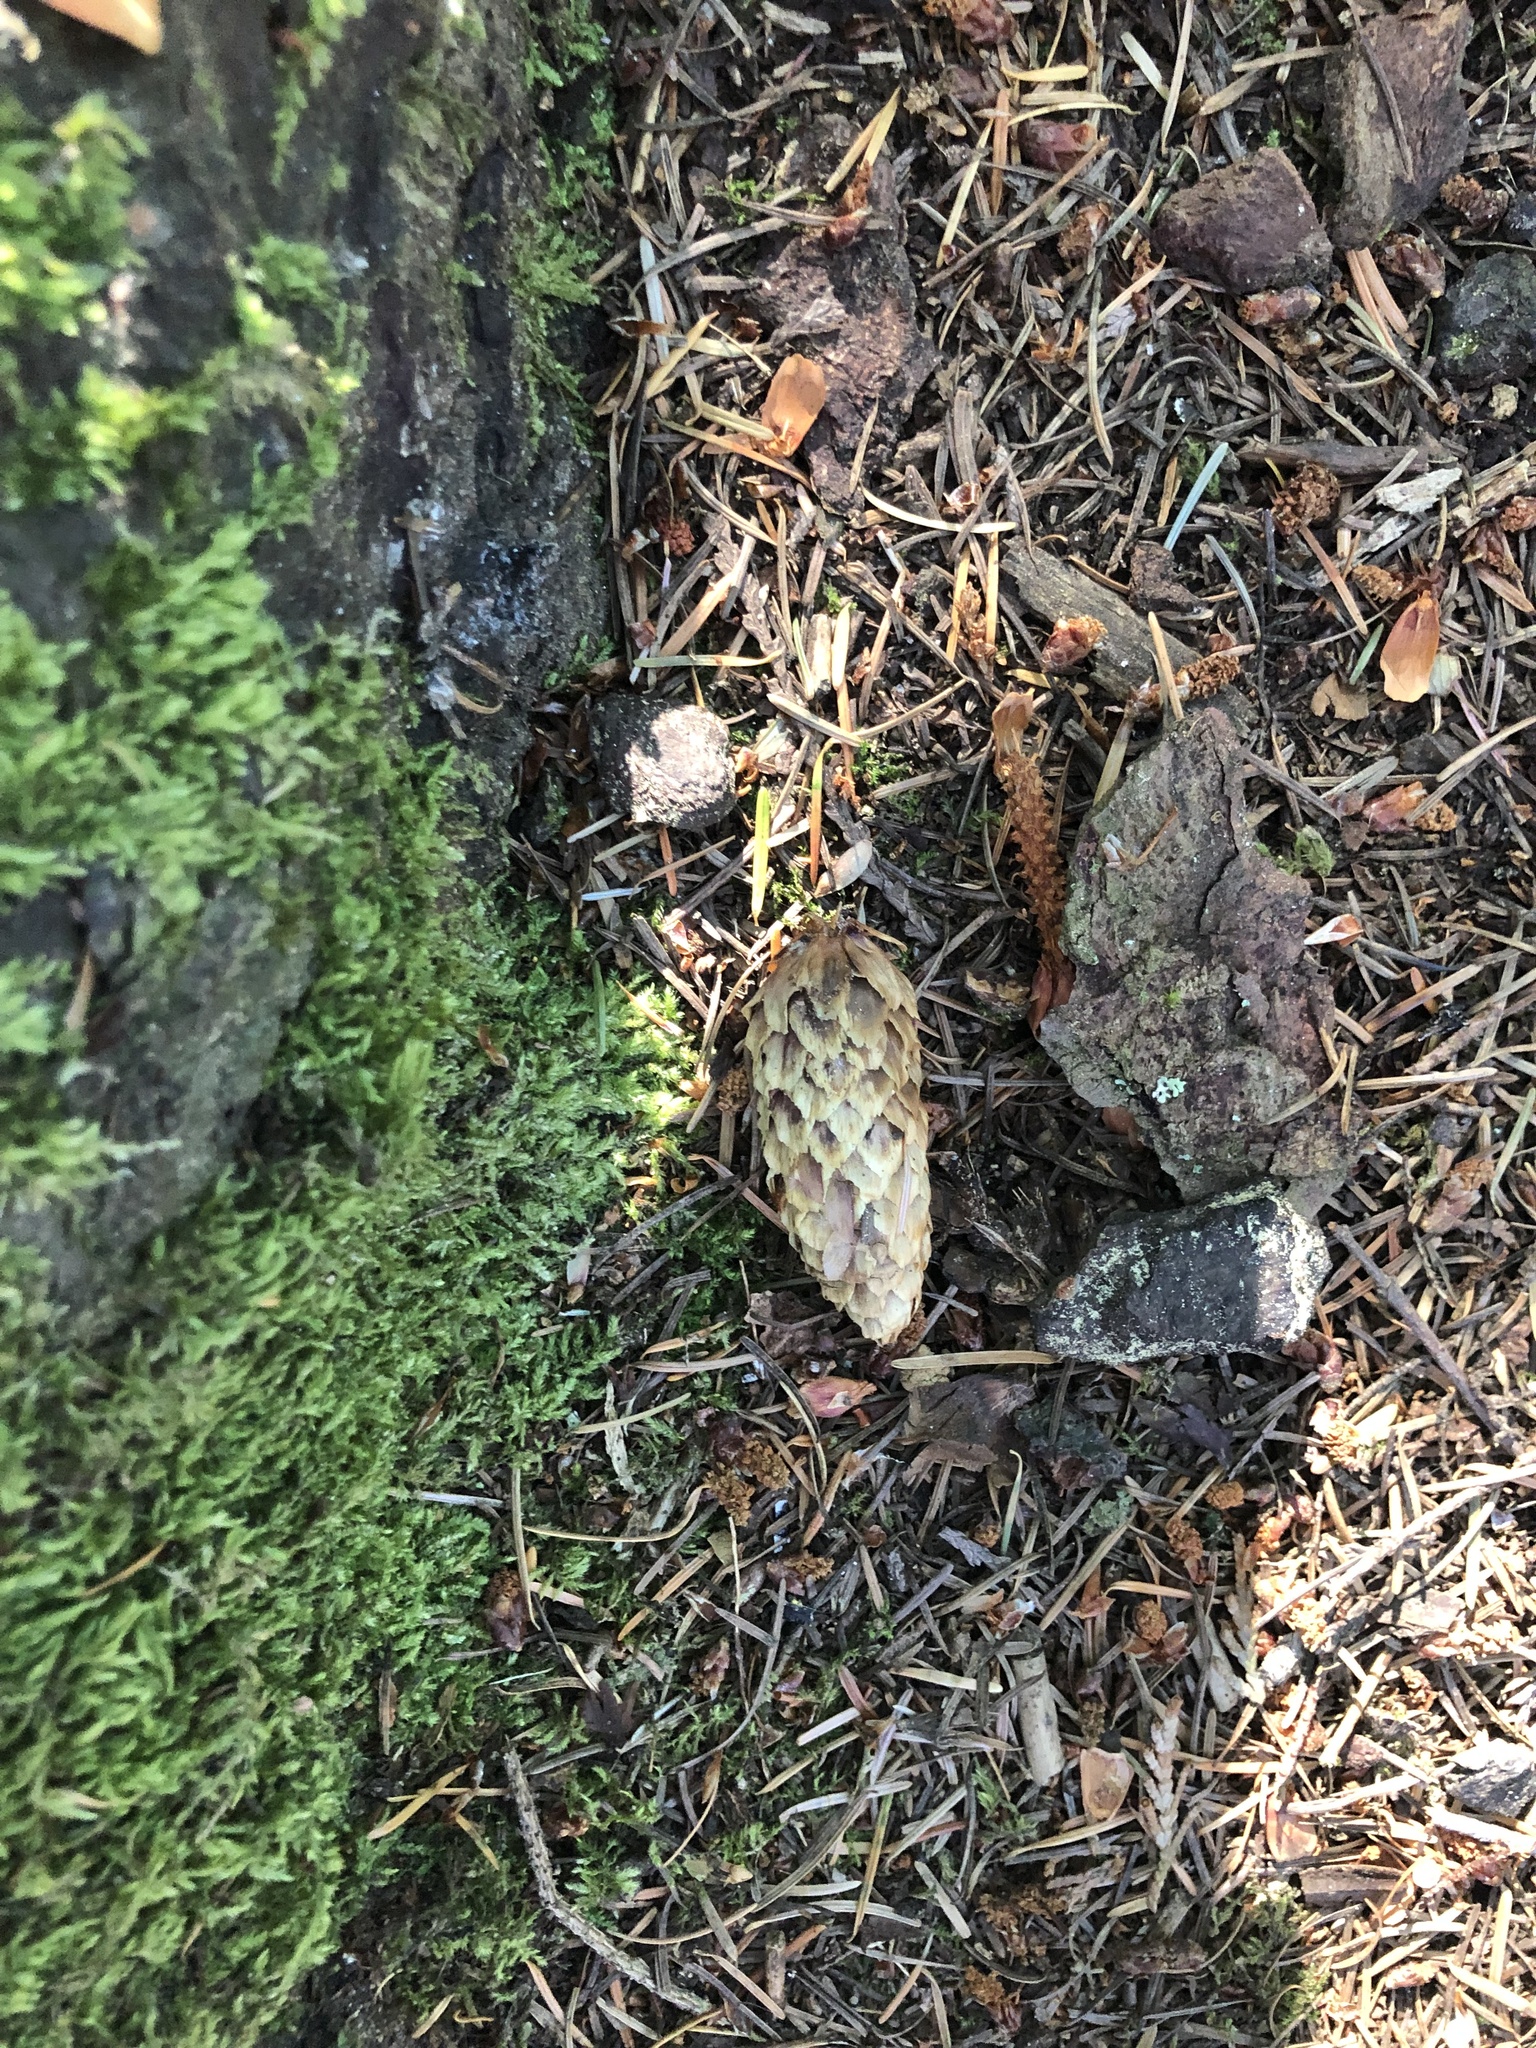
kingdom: Plantae
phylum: Tracheophyta
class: Pinopsida
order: Pinales
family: Pinaceae
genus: Picea
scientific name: Picea sitchensis
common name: Sitka spruce
